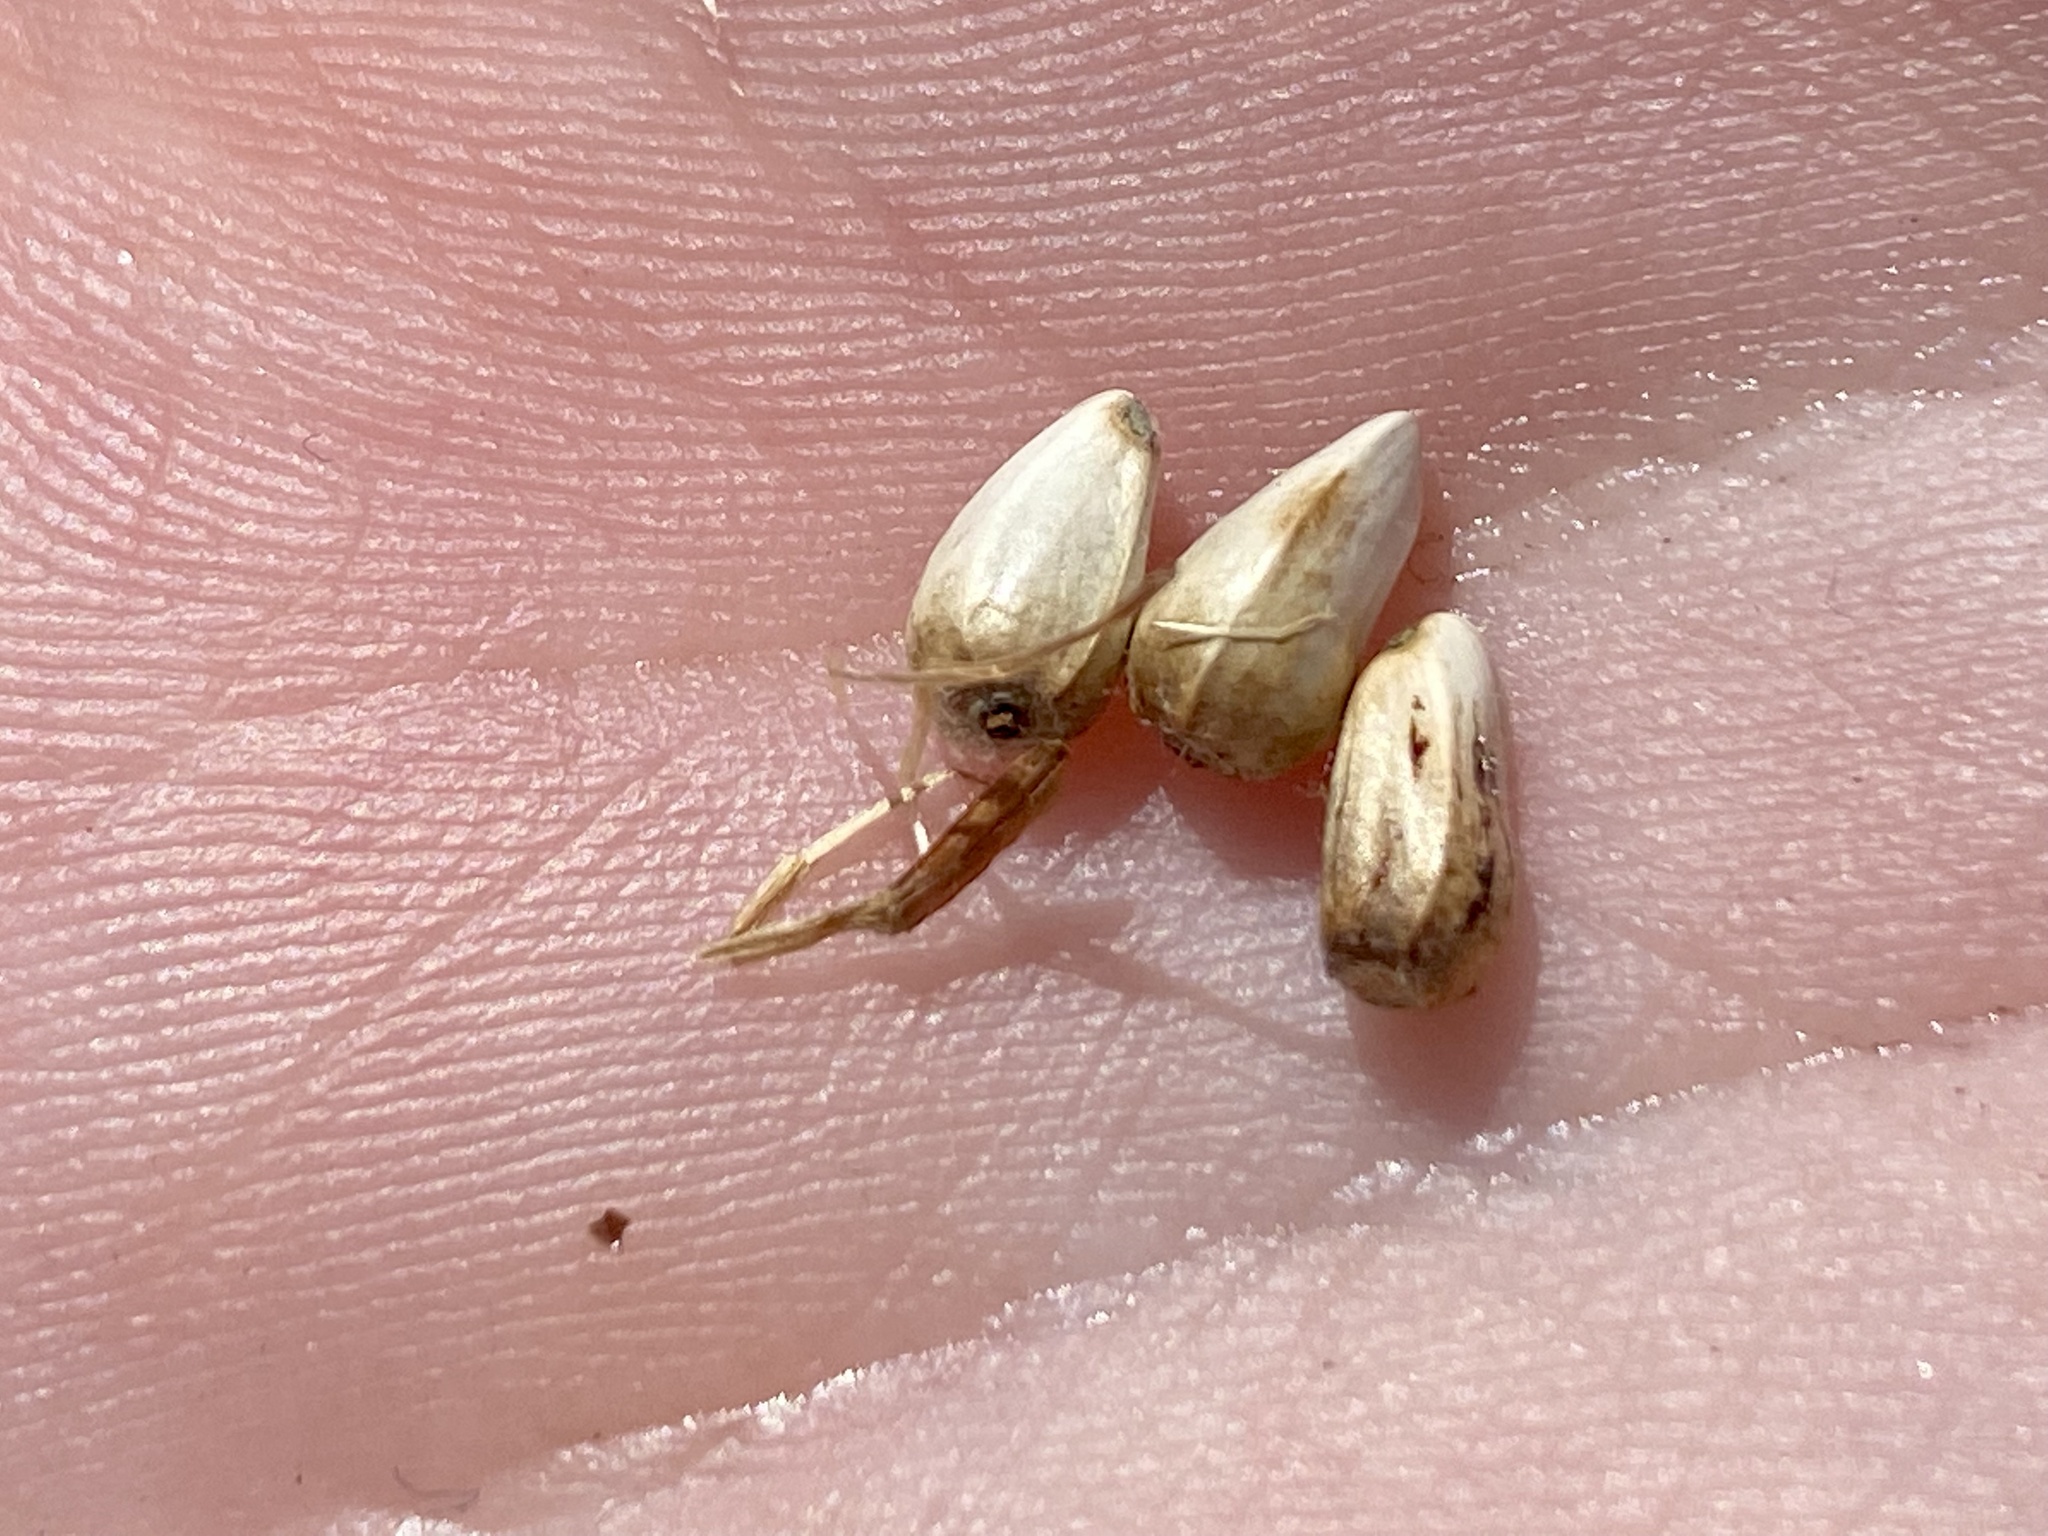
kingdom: Plantae
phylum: Tracheophyta
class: Magnoliopsida
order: Asterales
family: Asteraceae
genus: Carthamus
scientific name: Carthamus tinctorius
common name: Safflower
